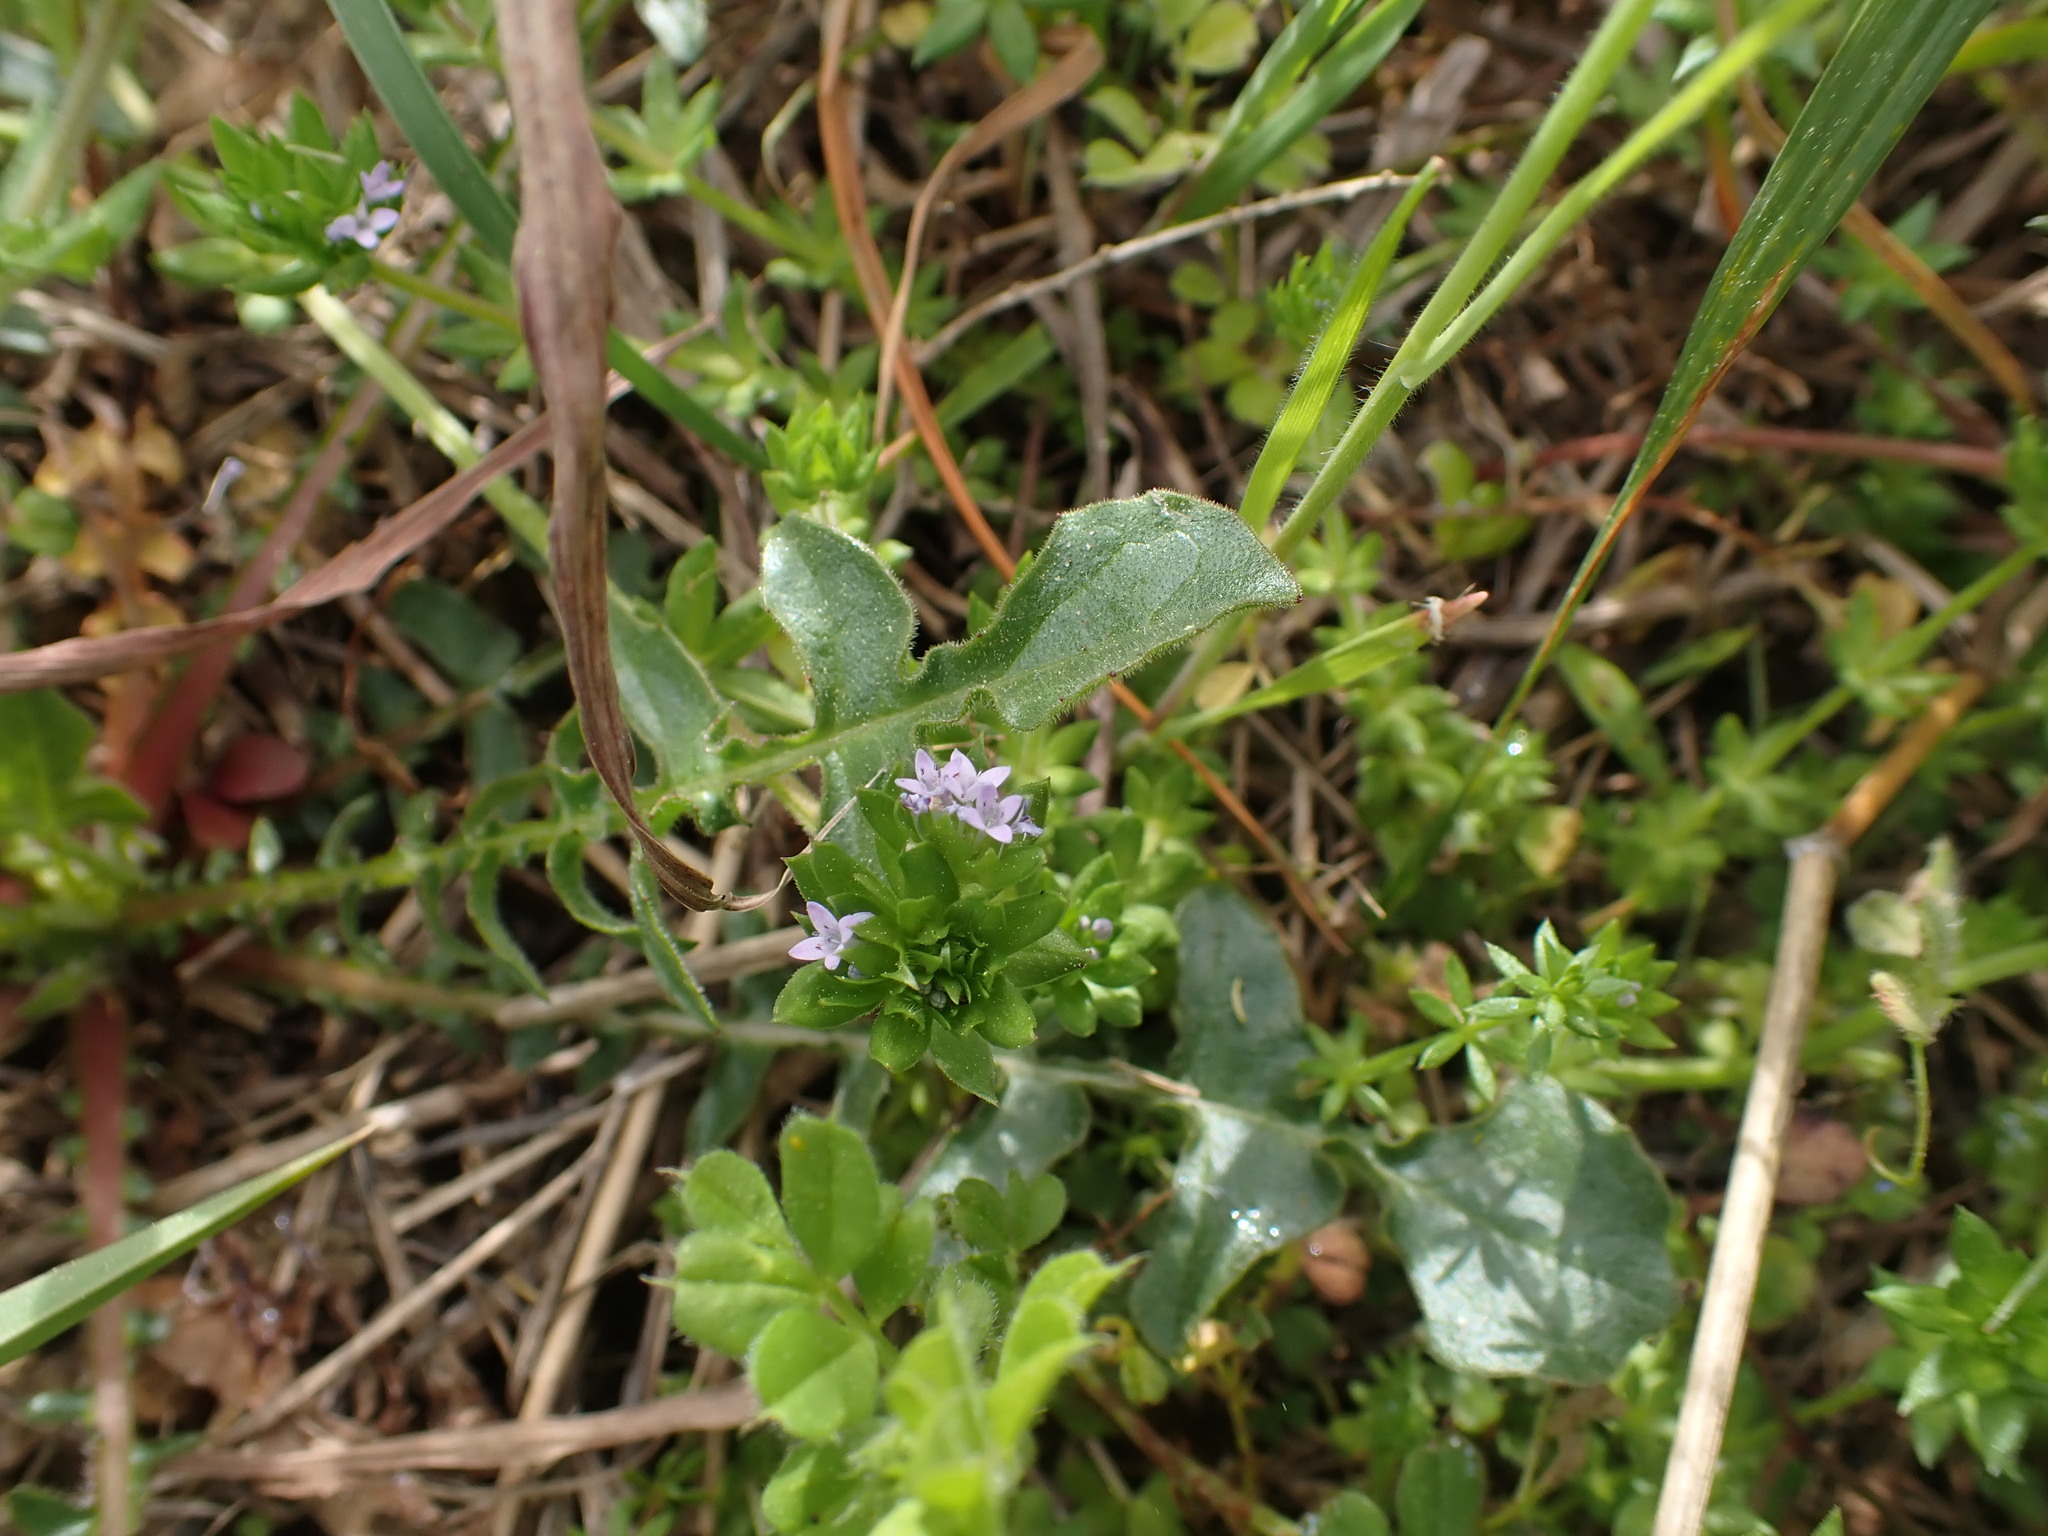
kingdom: Plantae
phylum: Tracheophyta
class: Magnoliopsida
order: Gentianales
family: Rubiaceae
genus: Sherardia
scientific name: Sherardia arvensis
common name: Field madder
